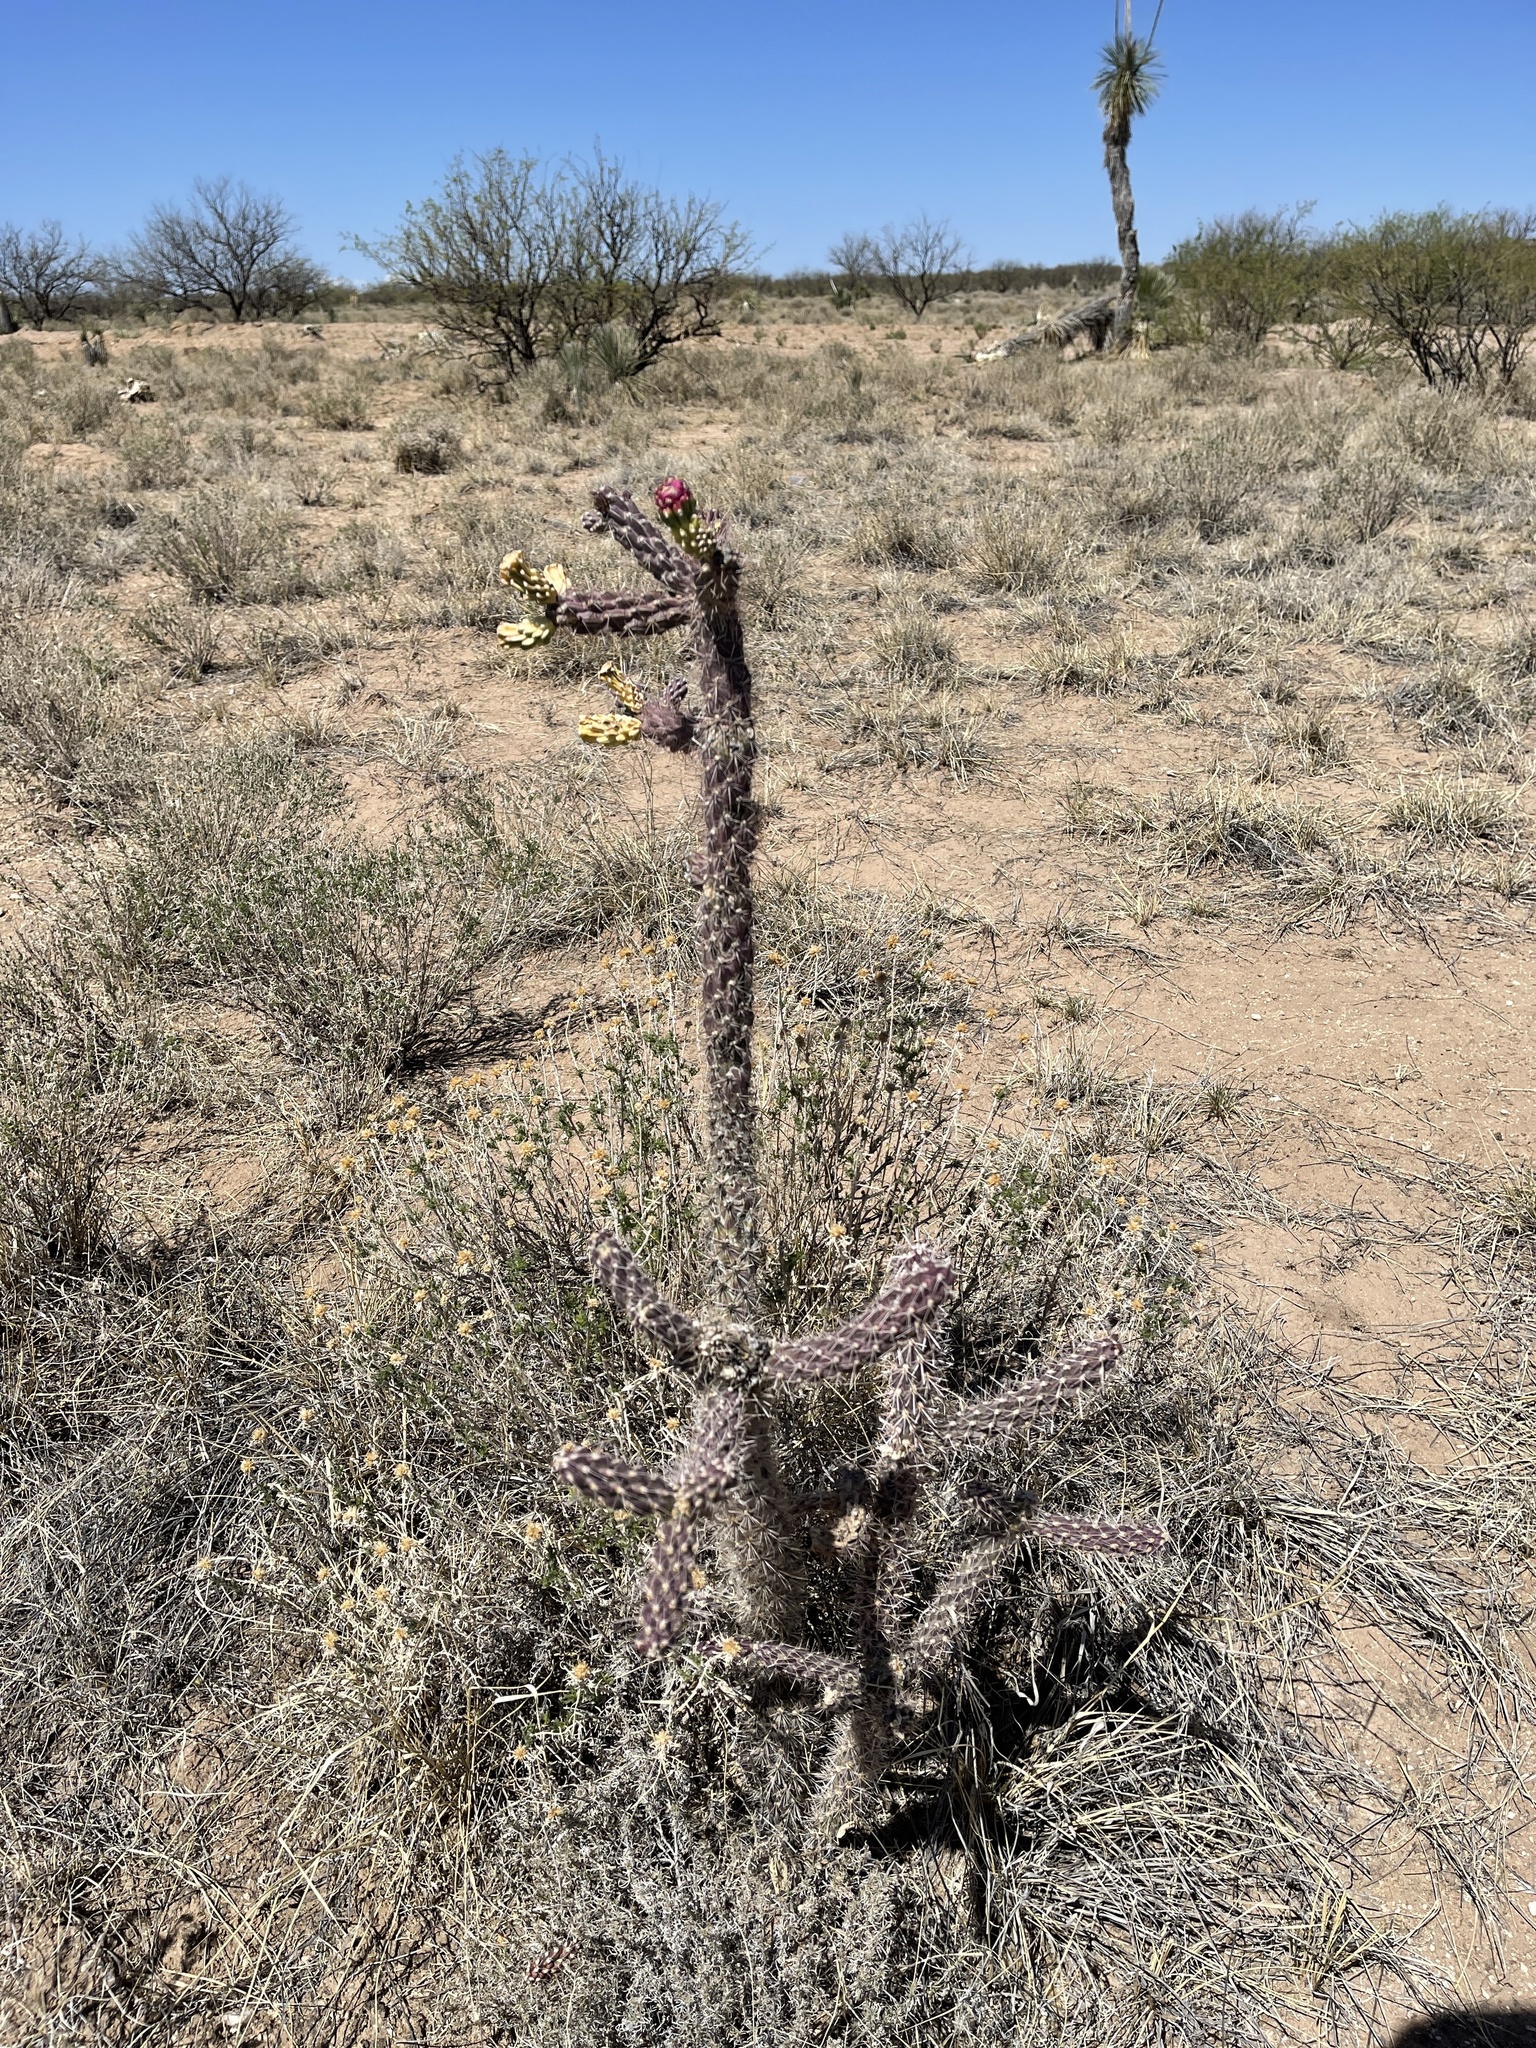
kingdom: Plantae
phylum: Tracheophyta
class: Magnoliopsida
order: Caryophyllales
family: Cactaceae
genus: Cylindropuntia
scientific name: Cylindropuntia imbricata
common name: Candelabrum cactus
